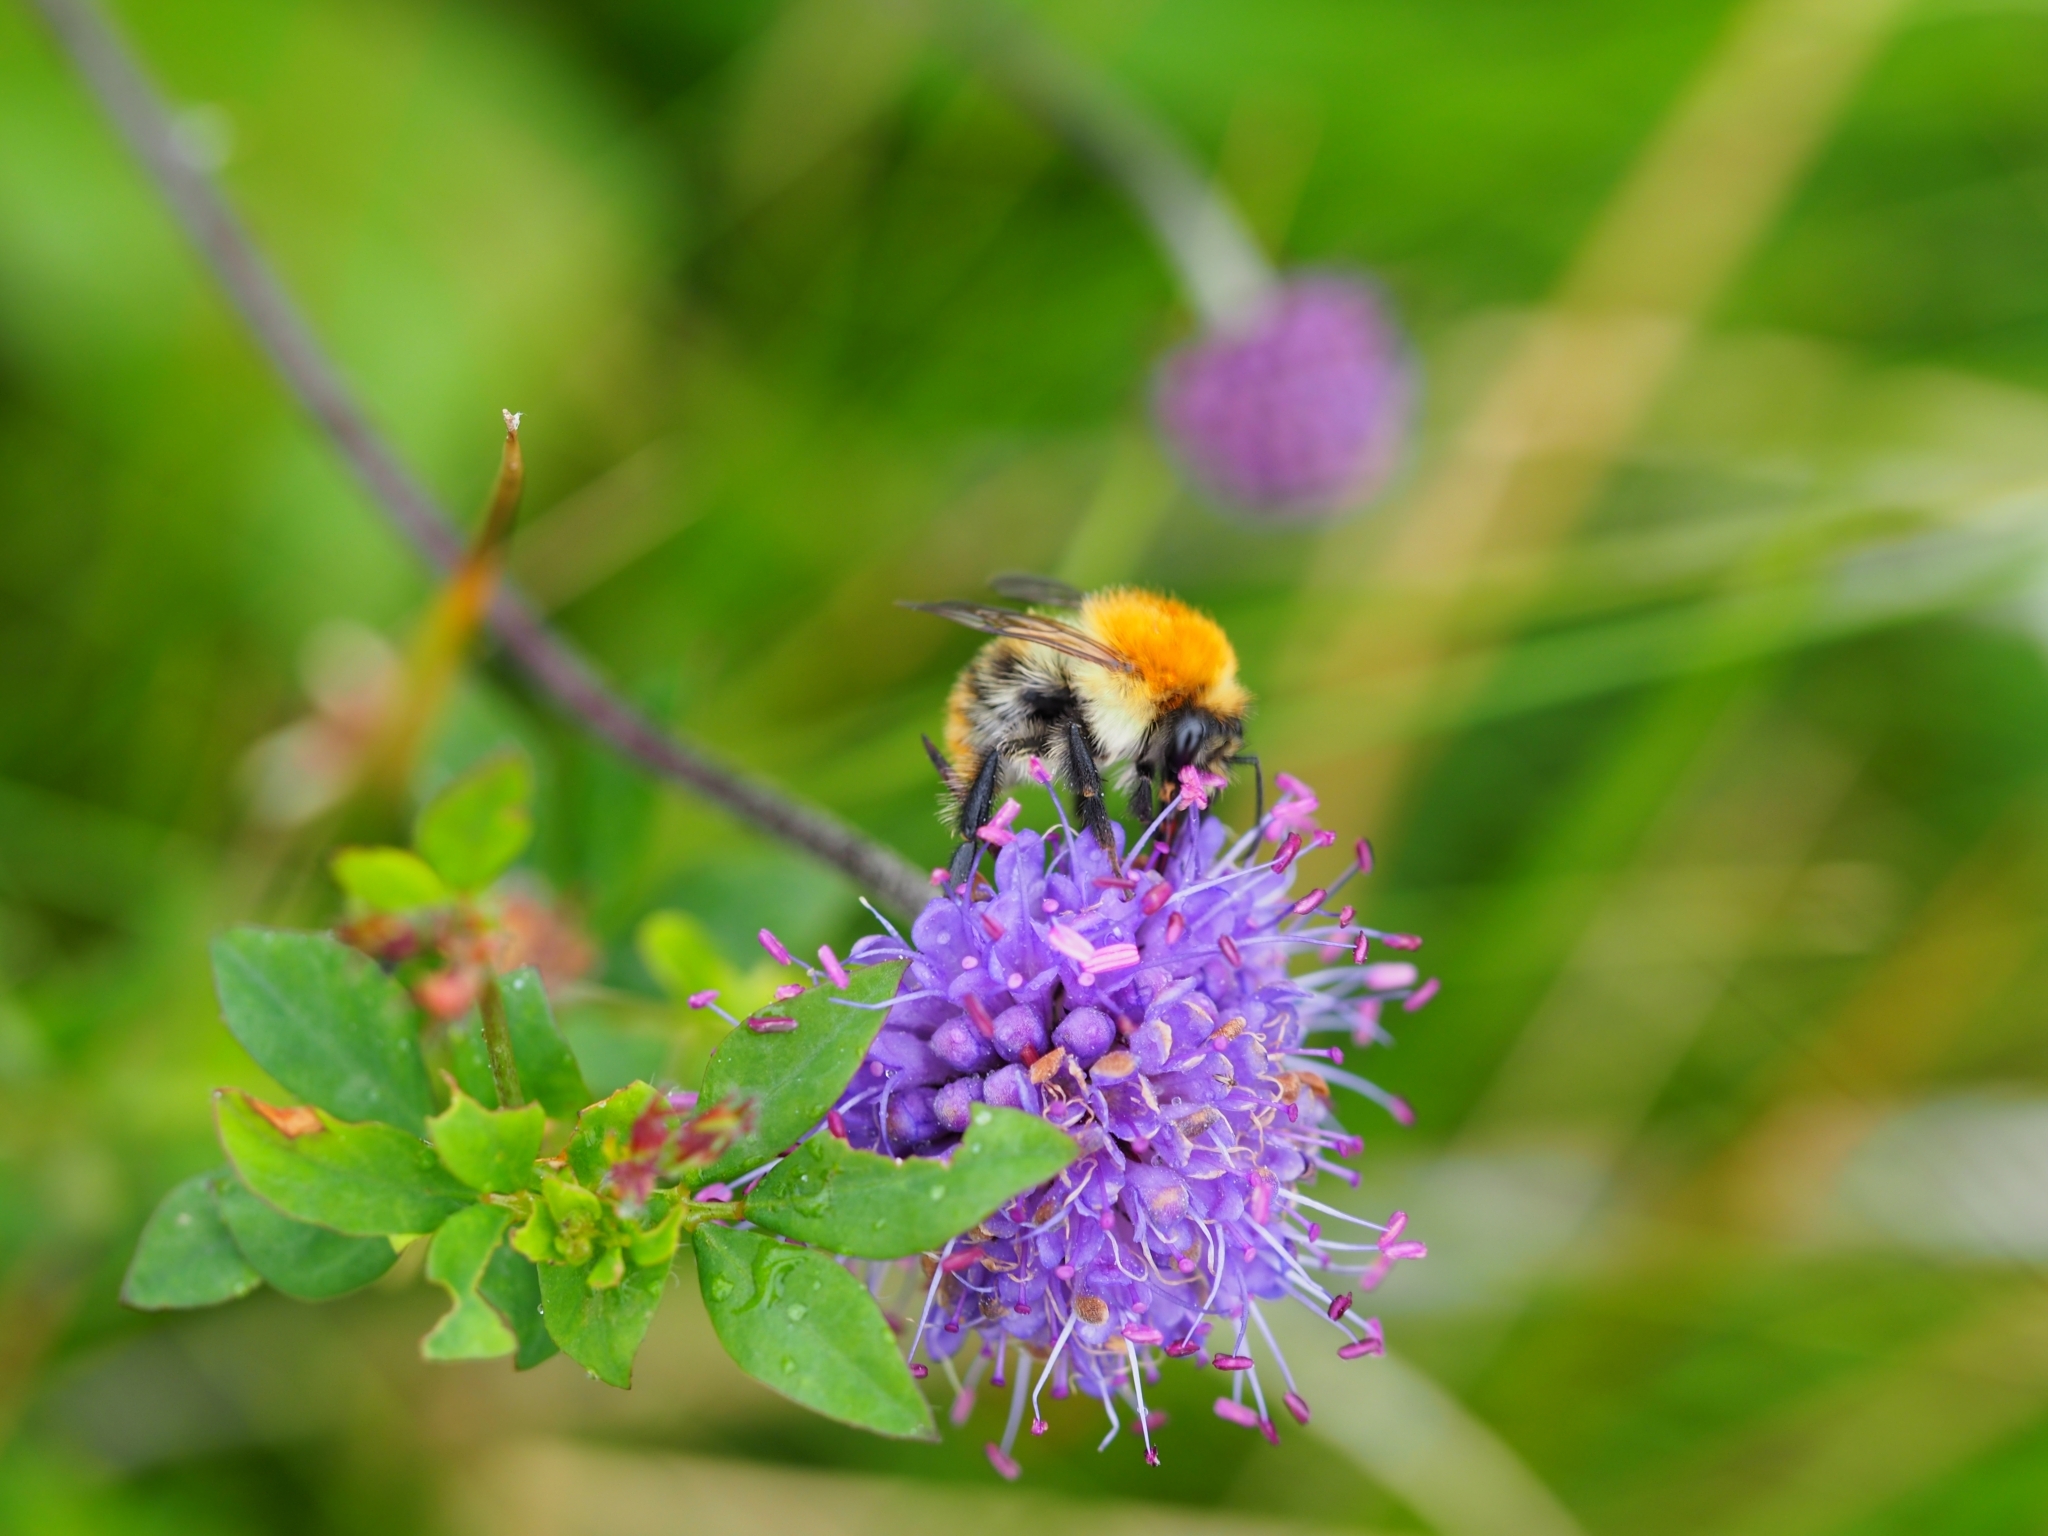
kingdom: Animalia
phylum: Arthropoda
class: Insecta
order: Hymenoptera
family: Apidae
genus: Bombus
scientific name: Bombus pascuorum
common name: Common carder bee
